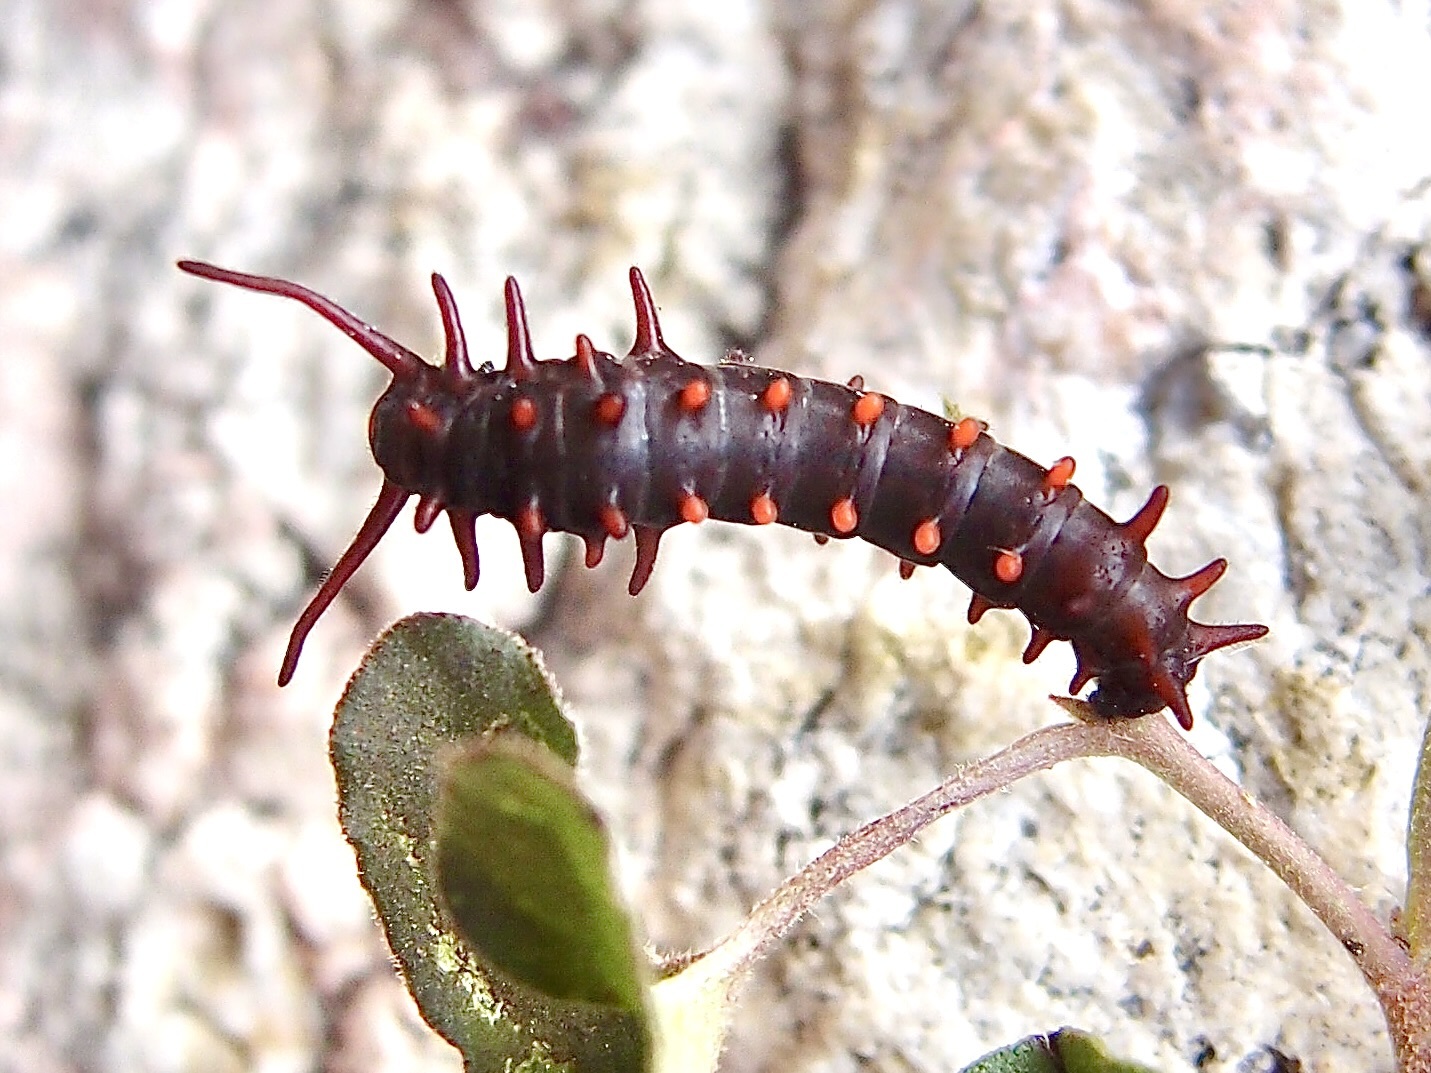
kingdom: Animalia
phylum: Arthropoda
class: Insecta
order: Lepidoptera
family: Papilionidae
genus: Battus
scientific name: Battus philenor
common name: Pipevine swallowtail
